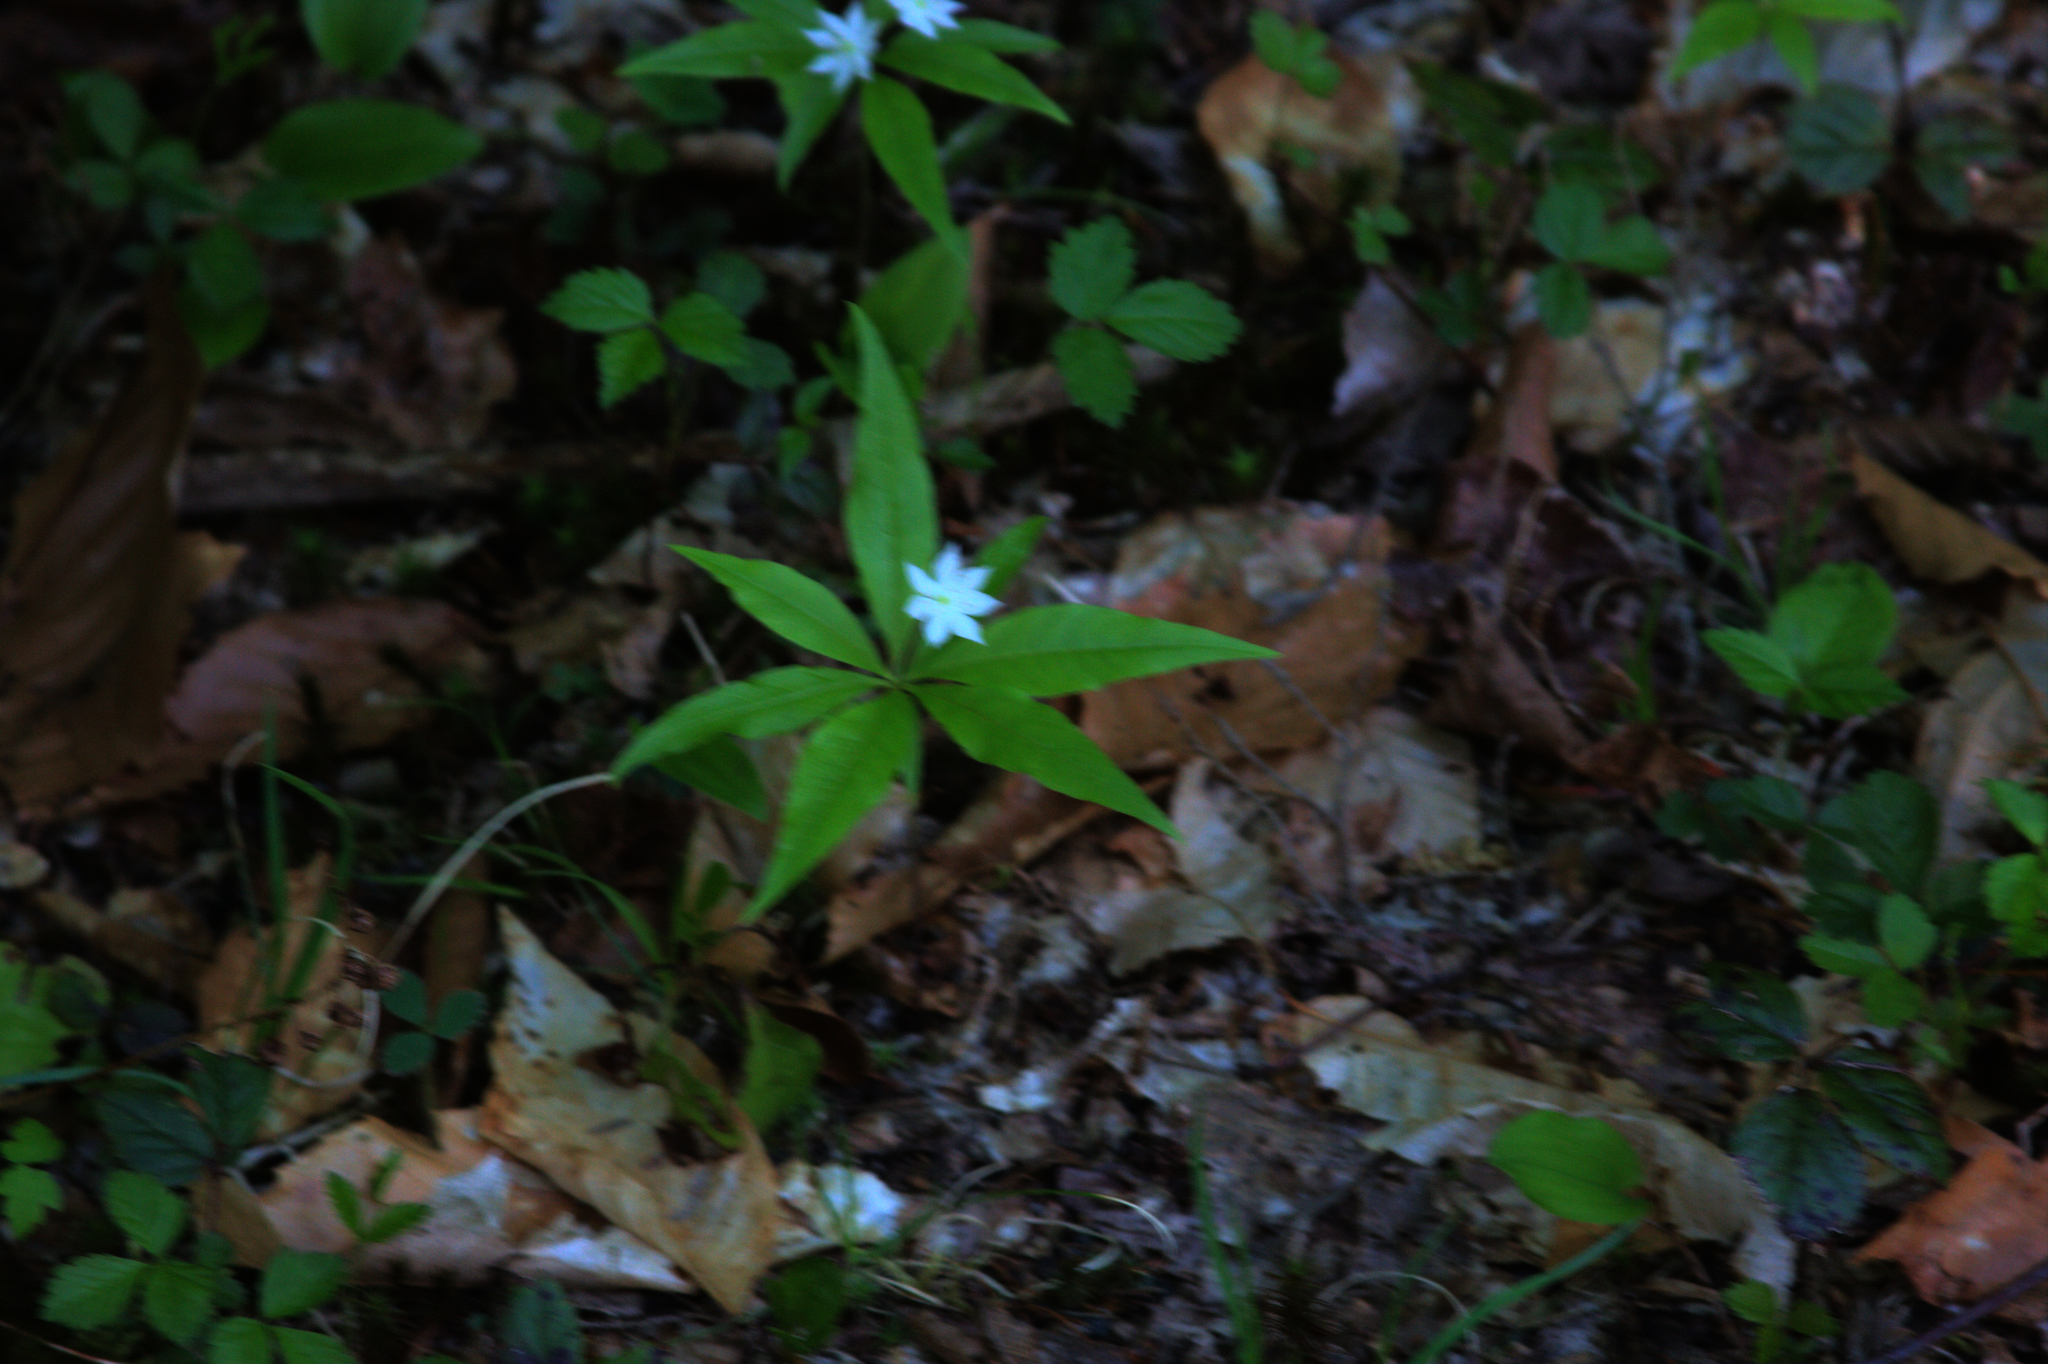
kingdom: Plantae
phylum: Tracheophyta
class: Magnoliopsida
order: Ericales
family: Primulaceae
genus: Lysimachia
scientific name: Lysimachia borealis
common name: American starflower
